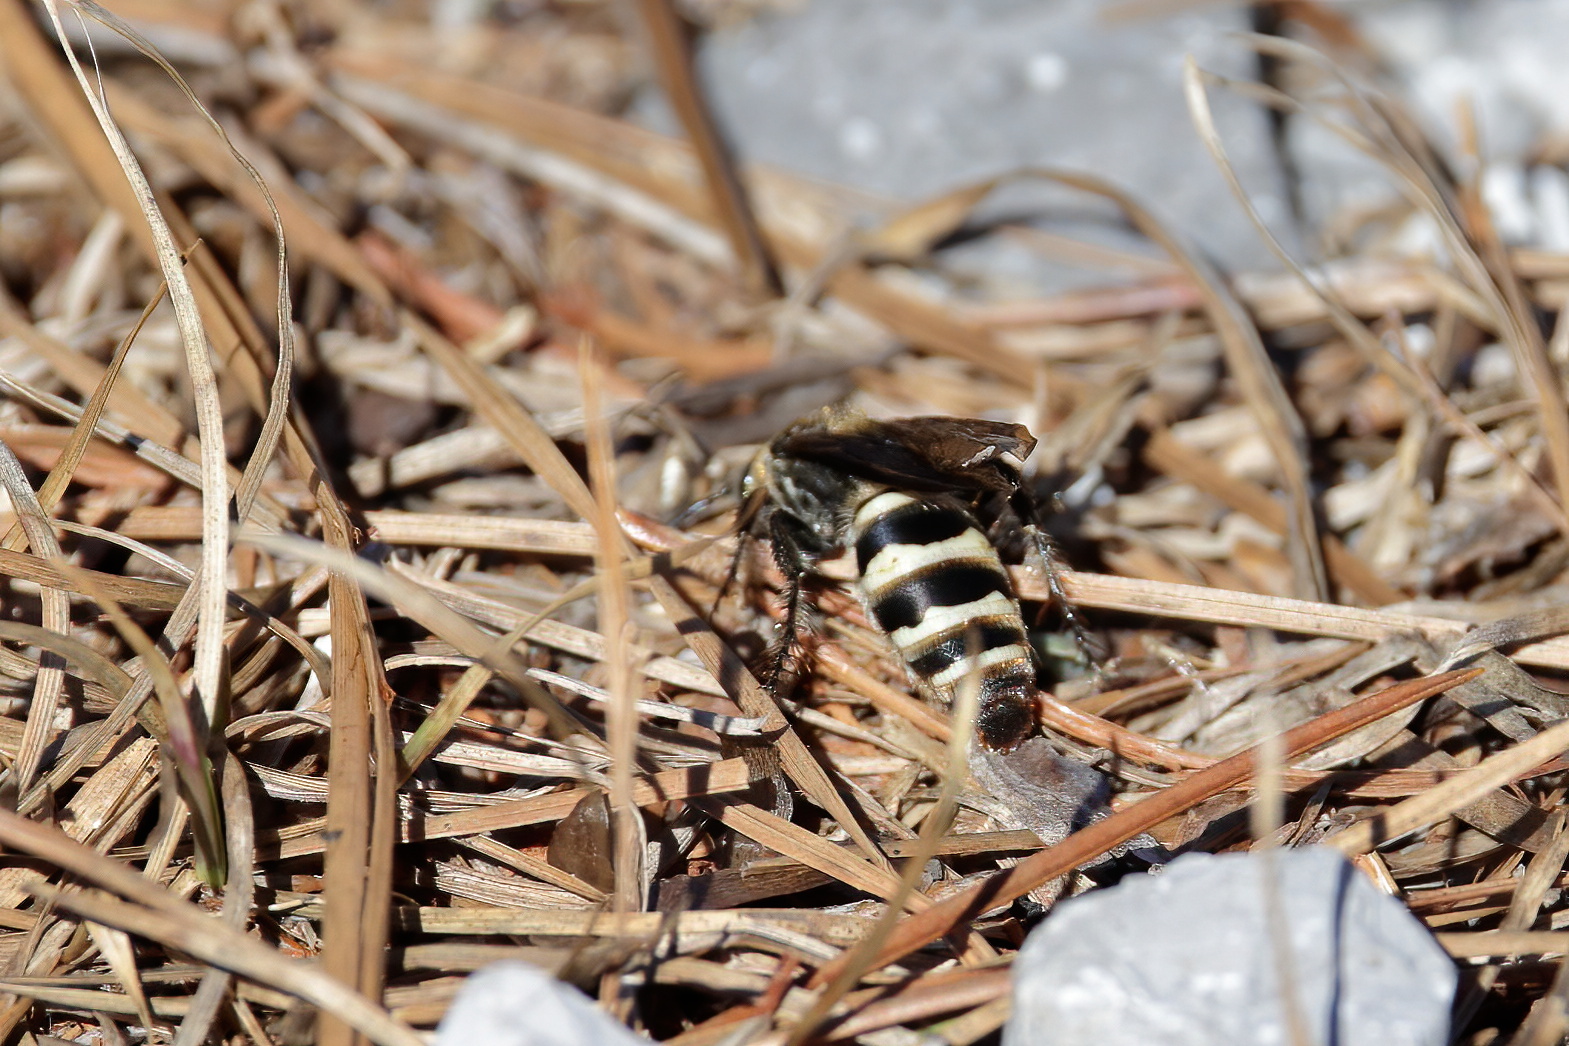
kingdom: Animalia
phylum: Arthropoda
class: Insecta
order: Hymenoptera
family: Scoliidae
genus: Dielis
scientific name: Dielis
